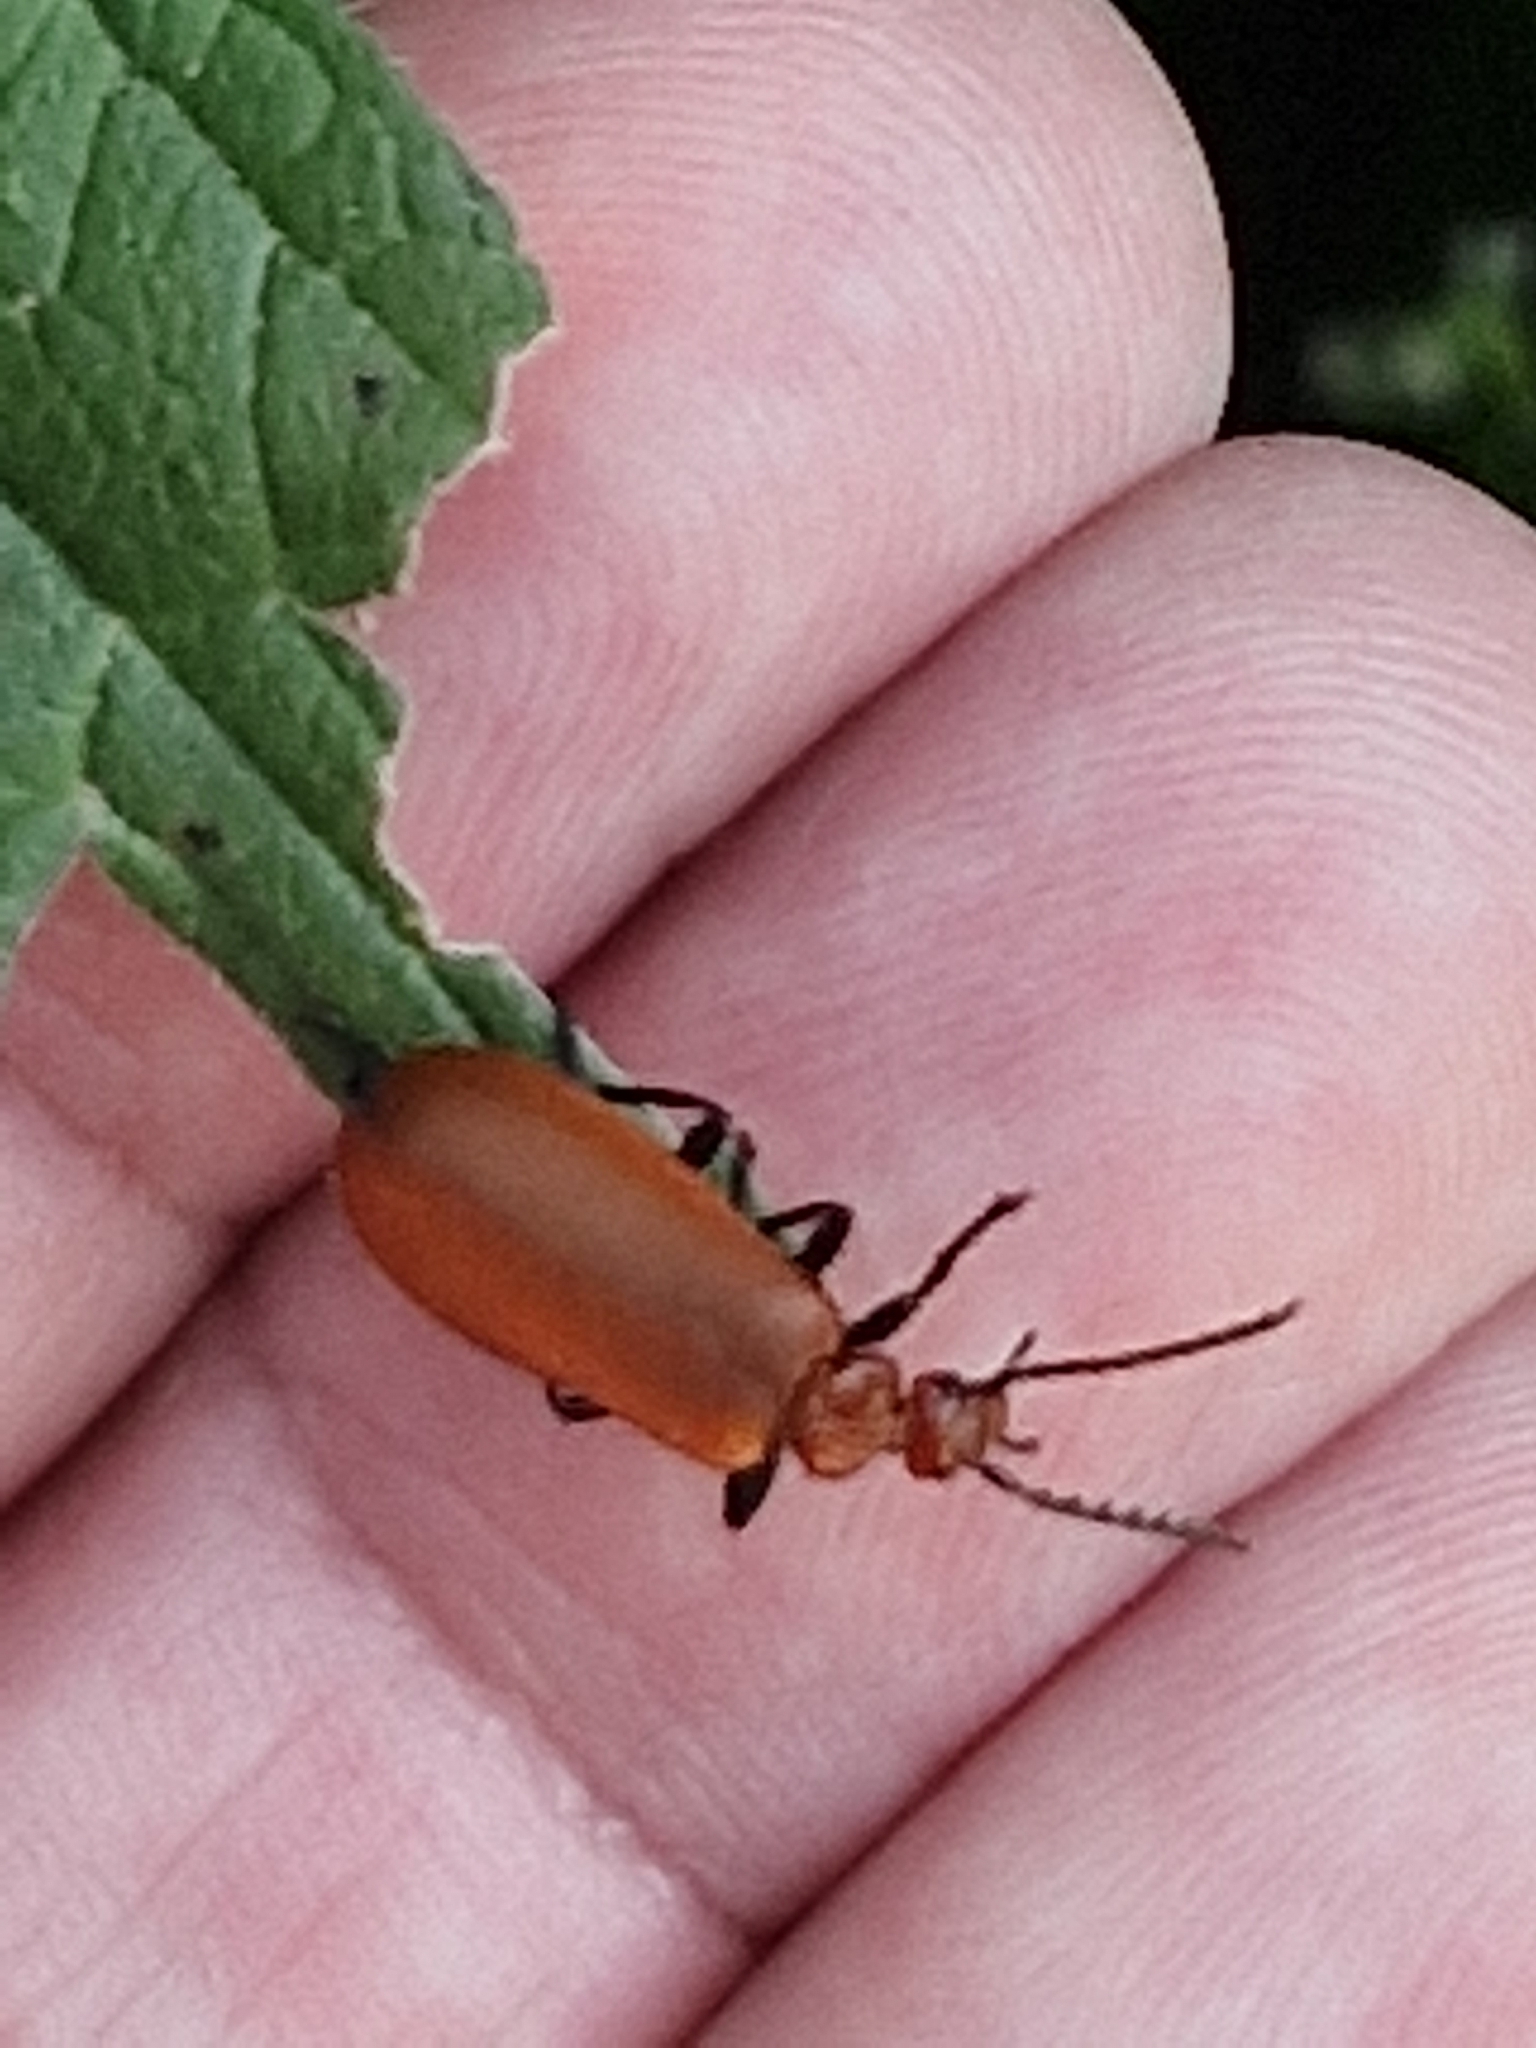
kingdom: Animalia
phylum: Arthropoda
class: Insecta
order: Coleoptera
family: Pyrochroidae
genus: Pyrochroa
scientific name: Pyrochroa serraticornis
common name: Red-headed cardinal beetle
